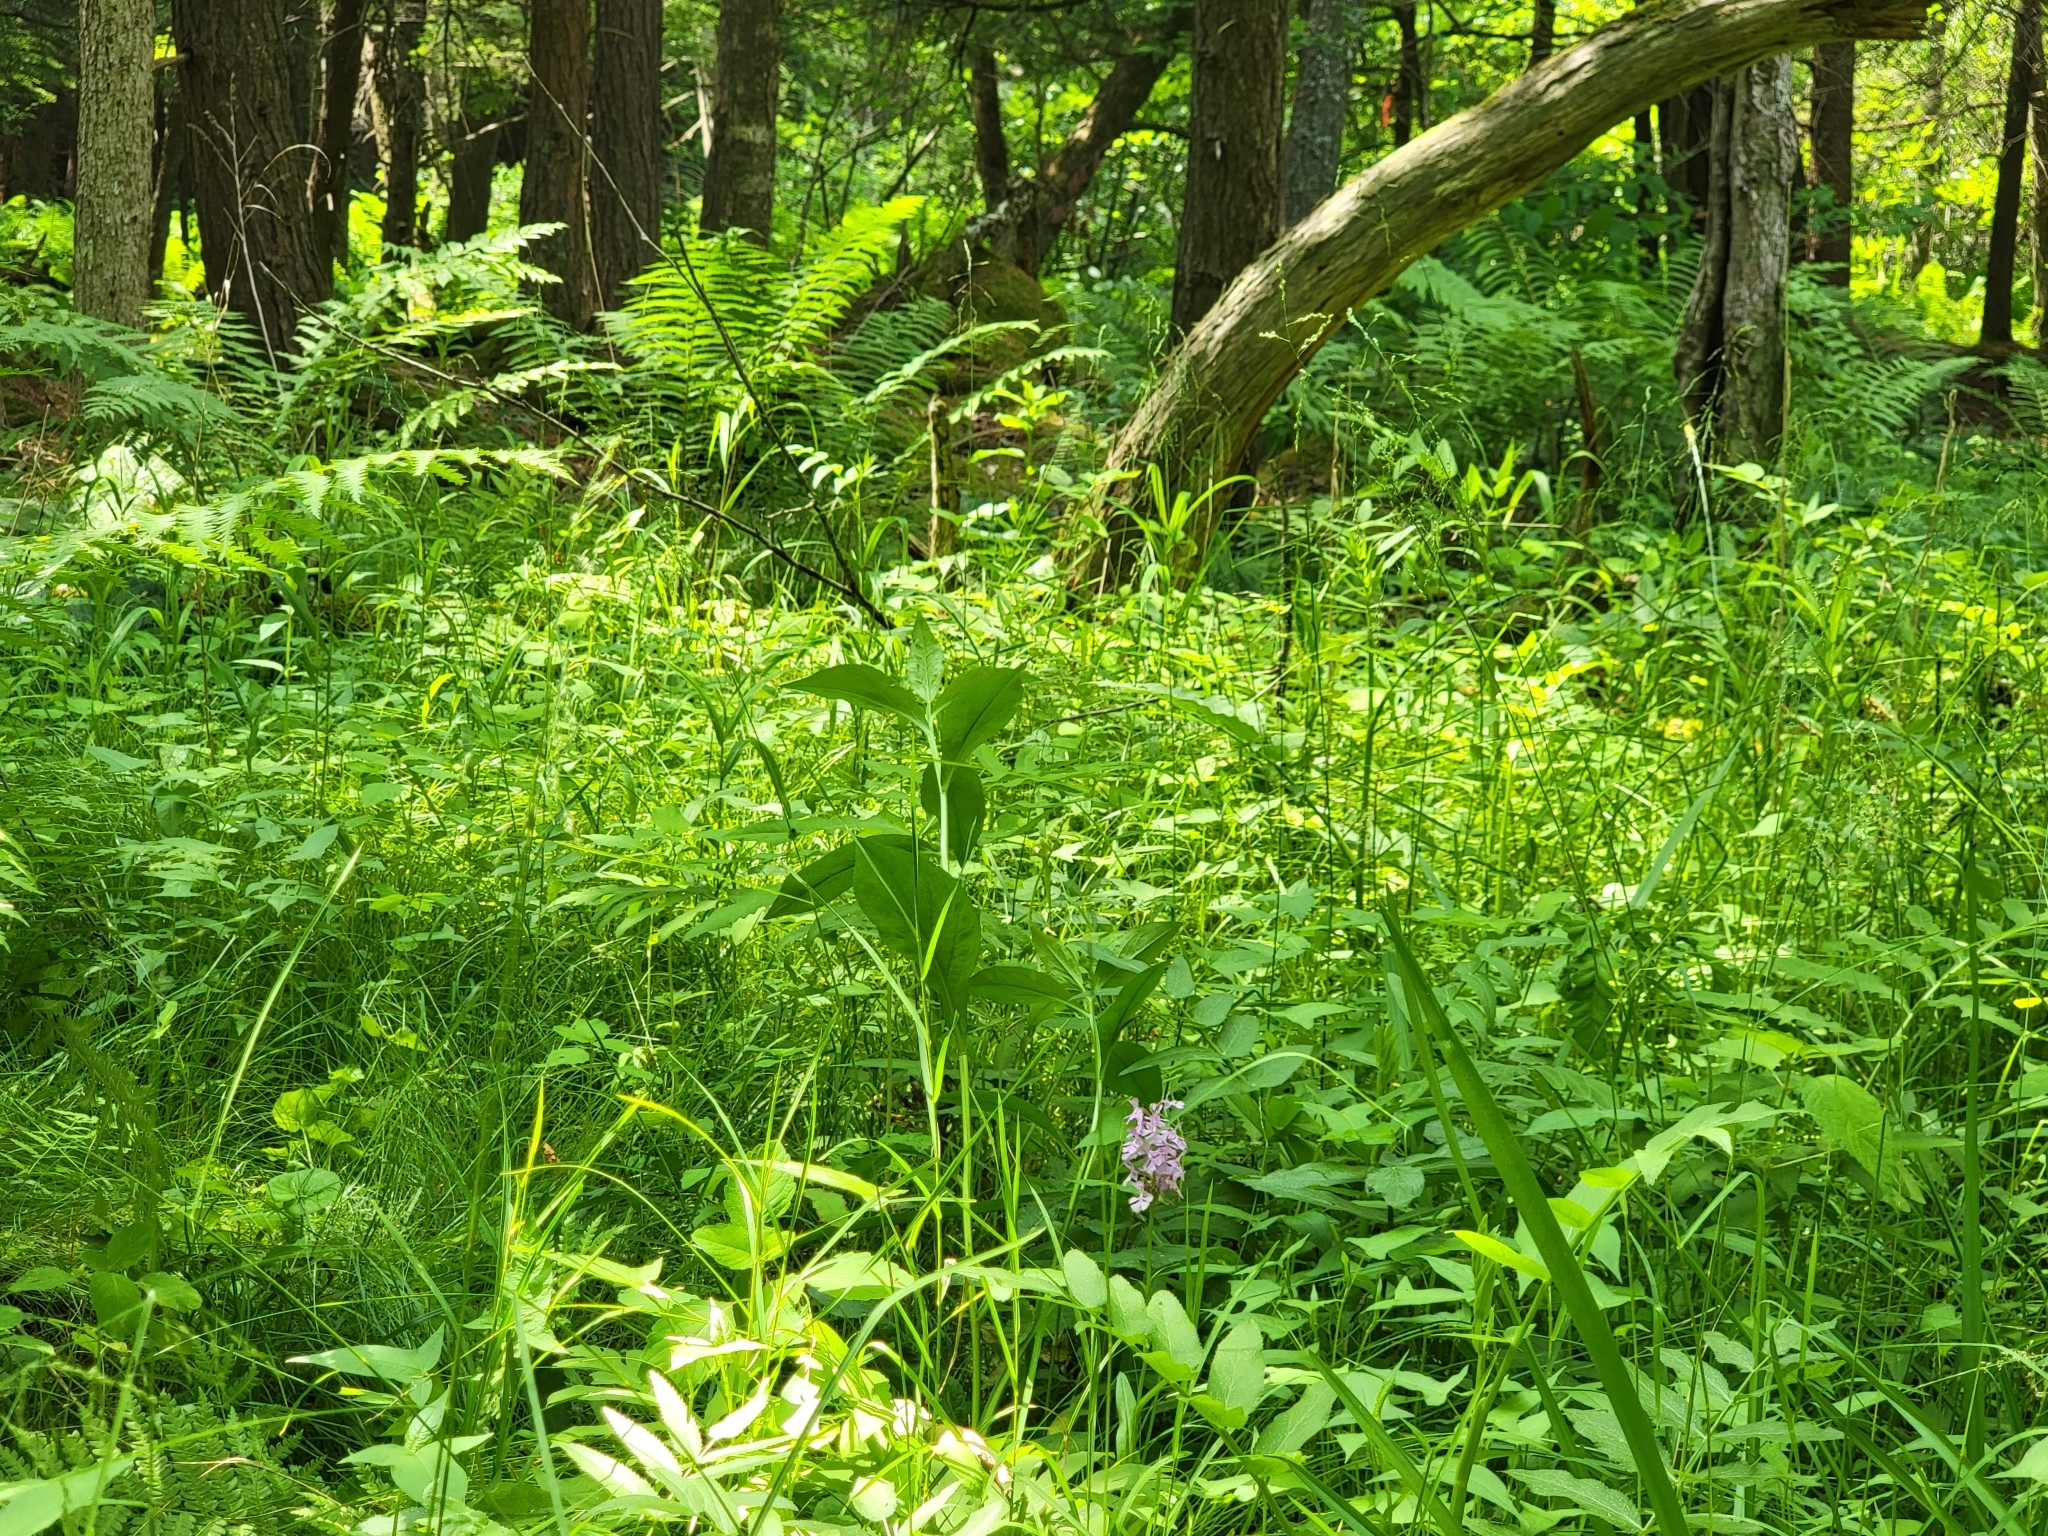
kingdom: Plantae
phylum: Tracheophyta
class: Liliopsida
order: Asparagales
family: Orchidaceae
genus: Platanthera
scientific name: Platanthera psycodes
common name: Lesser purple fringed orchid
